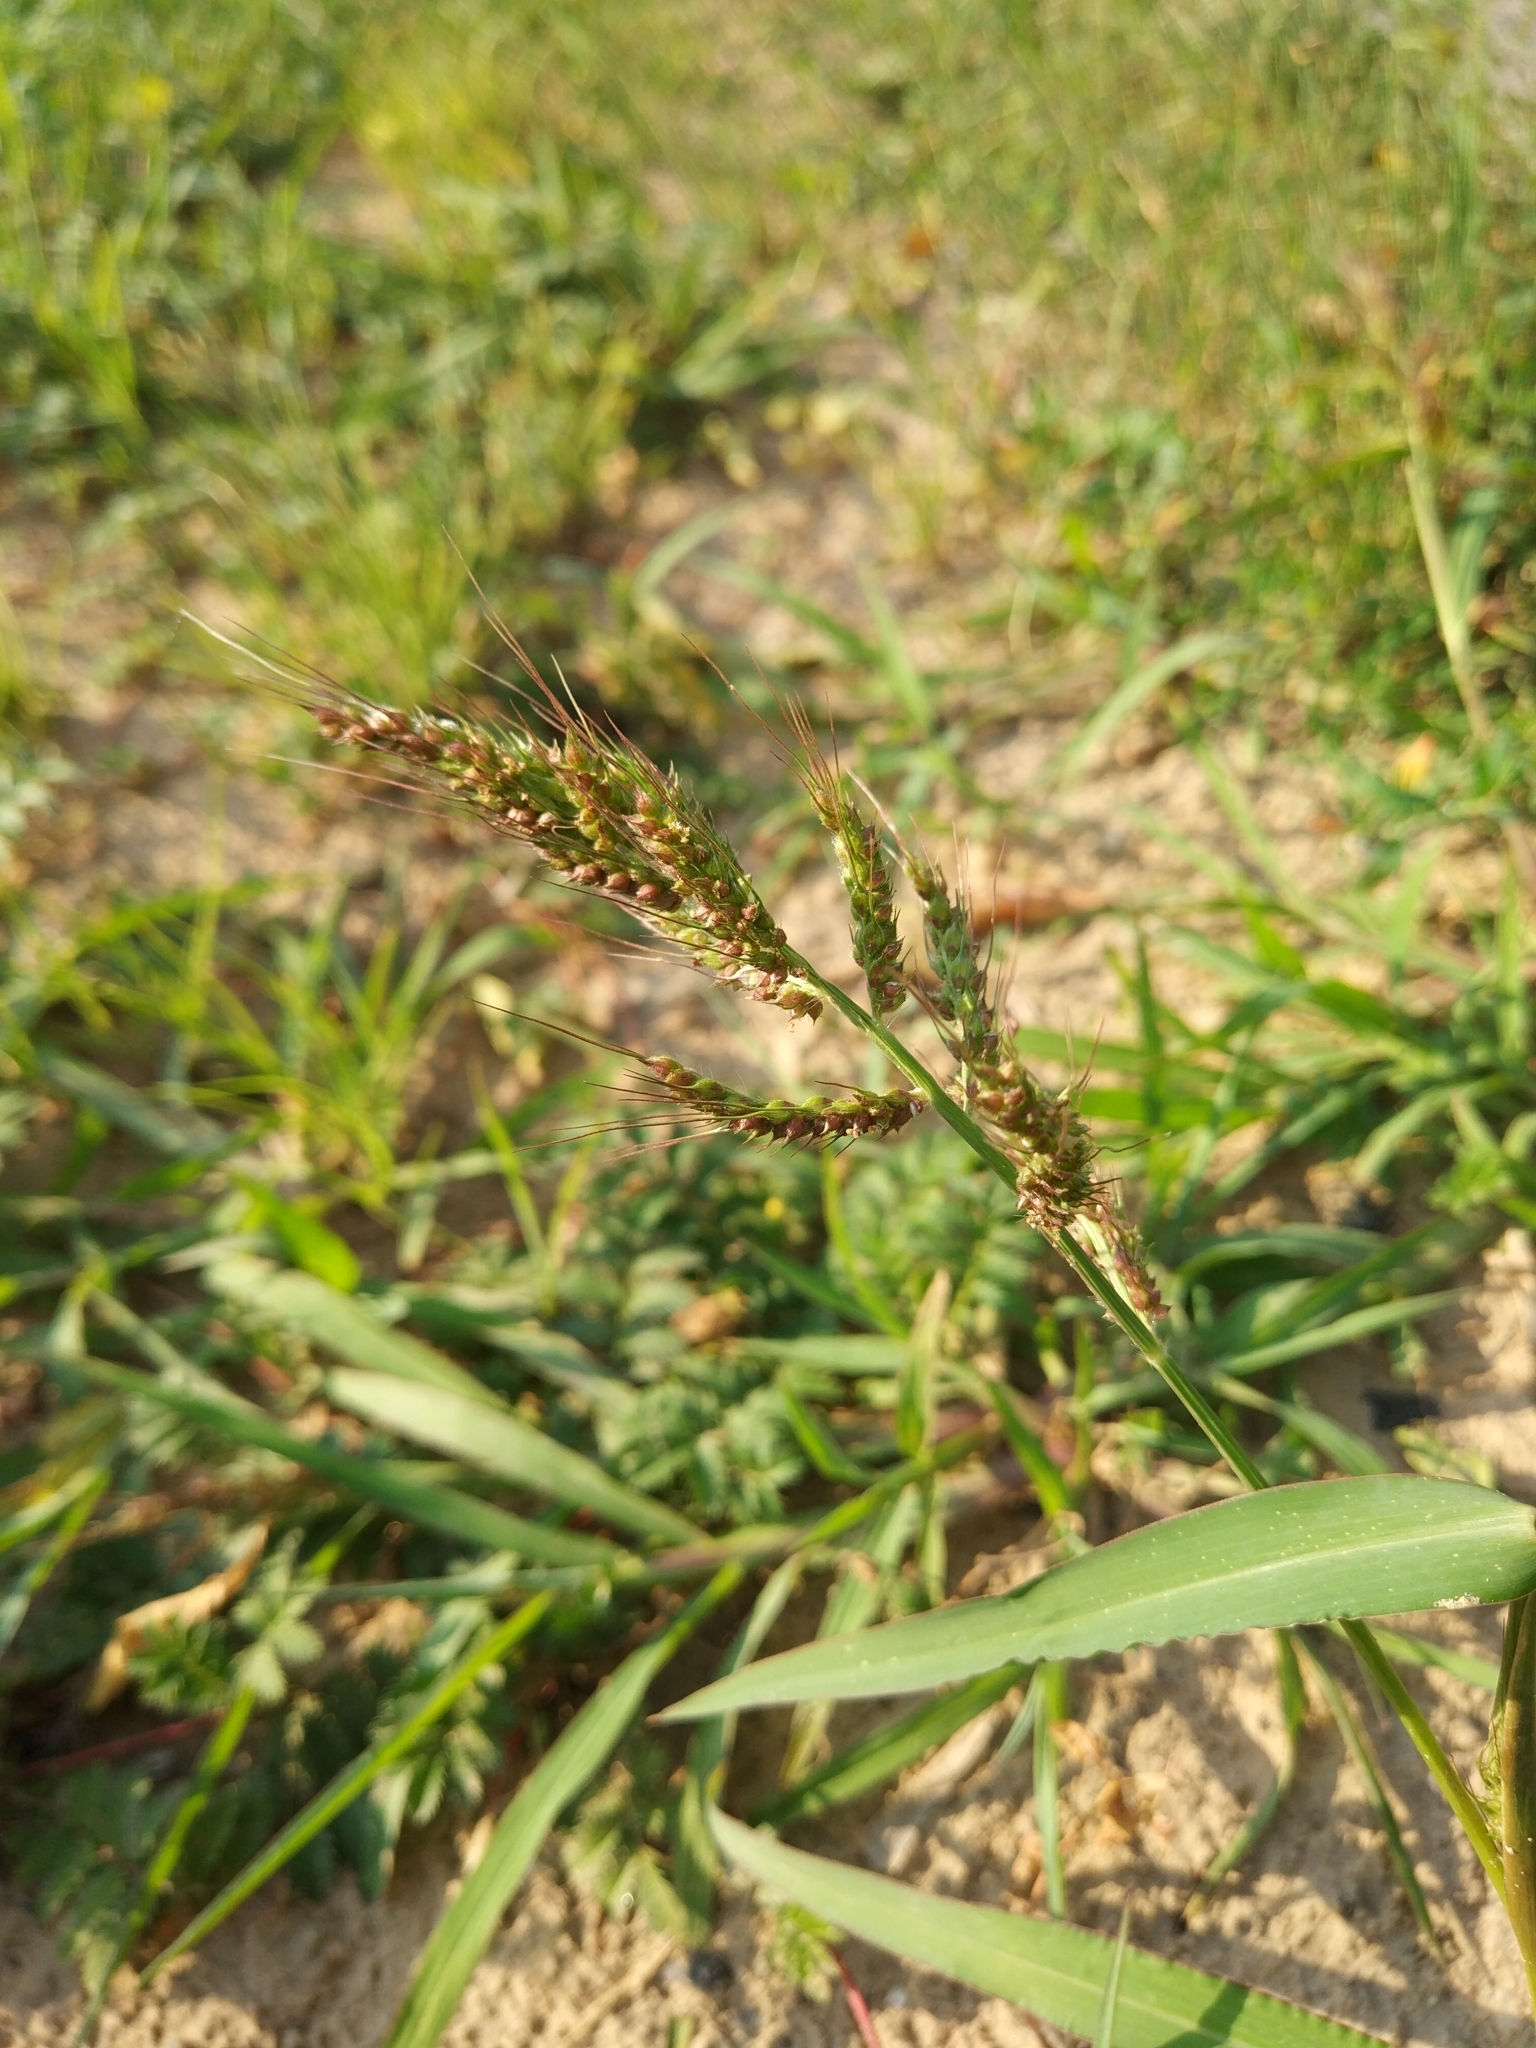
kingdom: Plantae
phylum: Tracheophyta
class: Liliopsida
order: Poales
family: Poaceae
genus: Echinochloa
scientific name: Echinochloa crus-galli
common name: Cockspur
